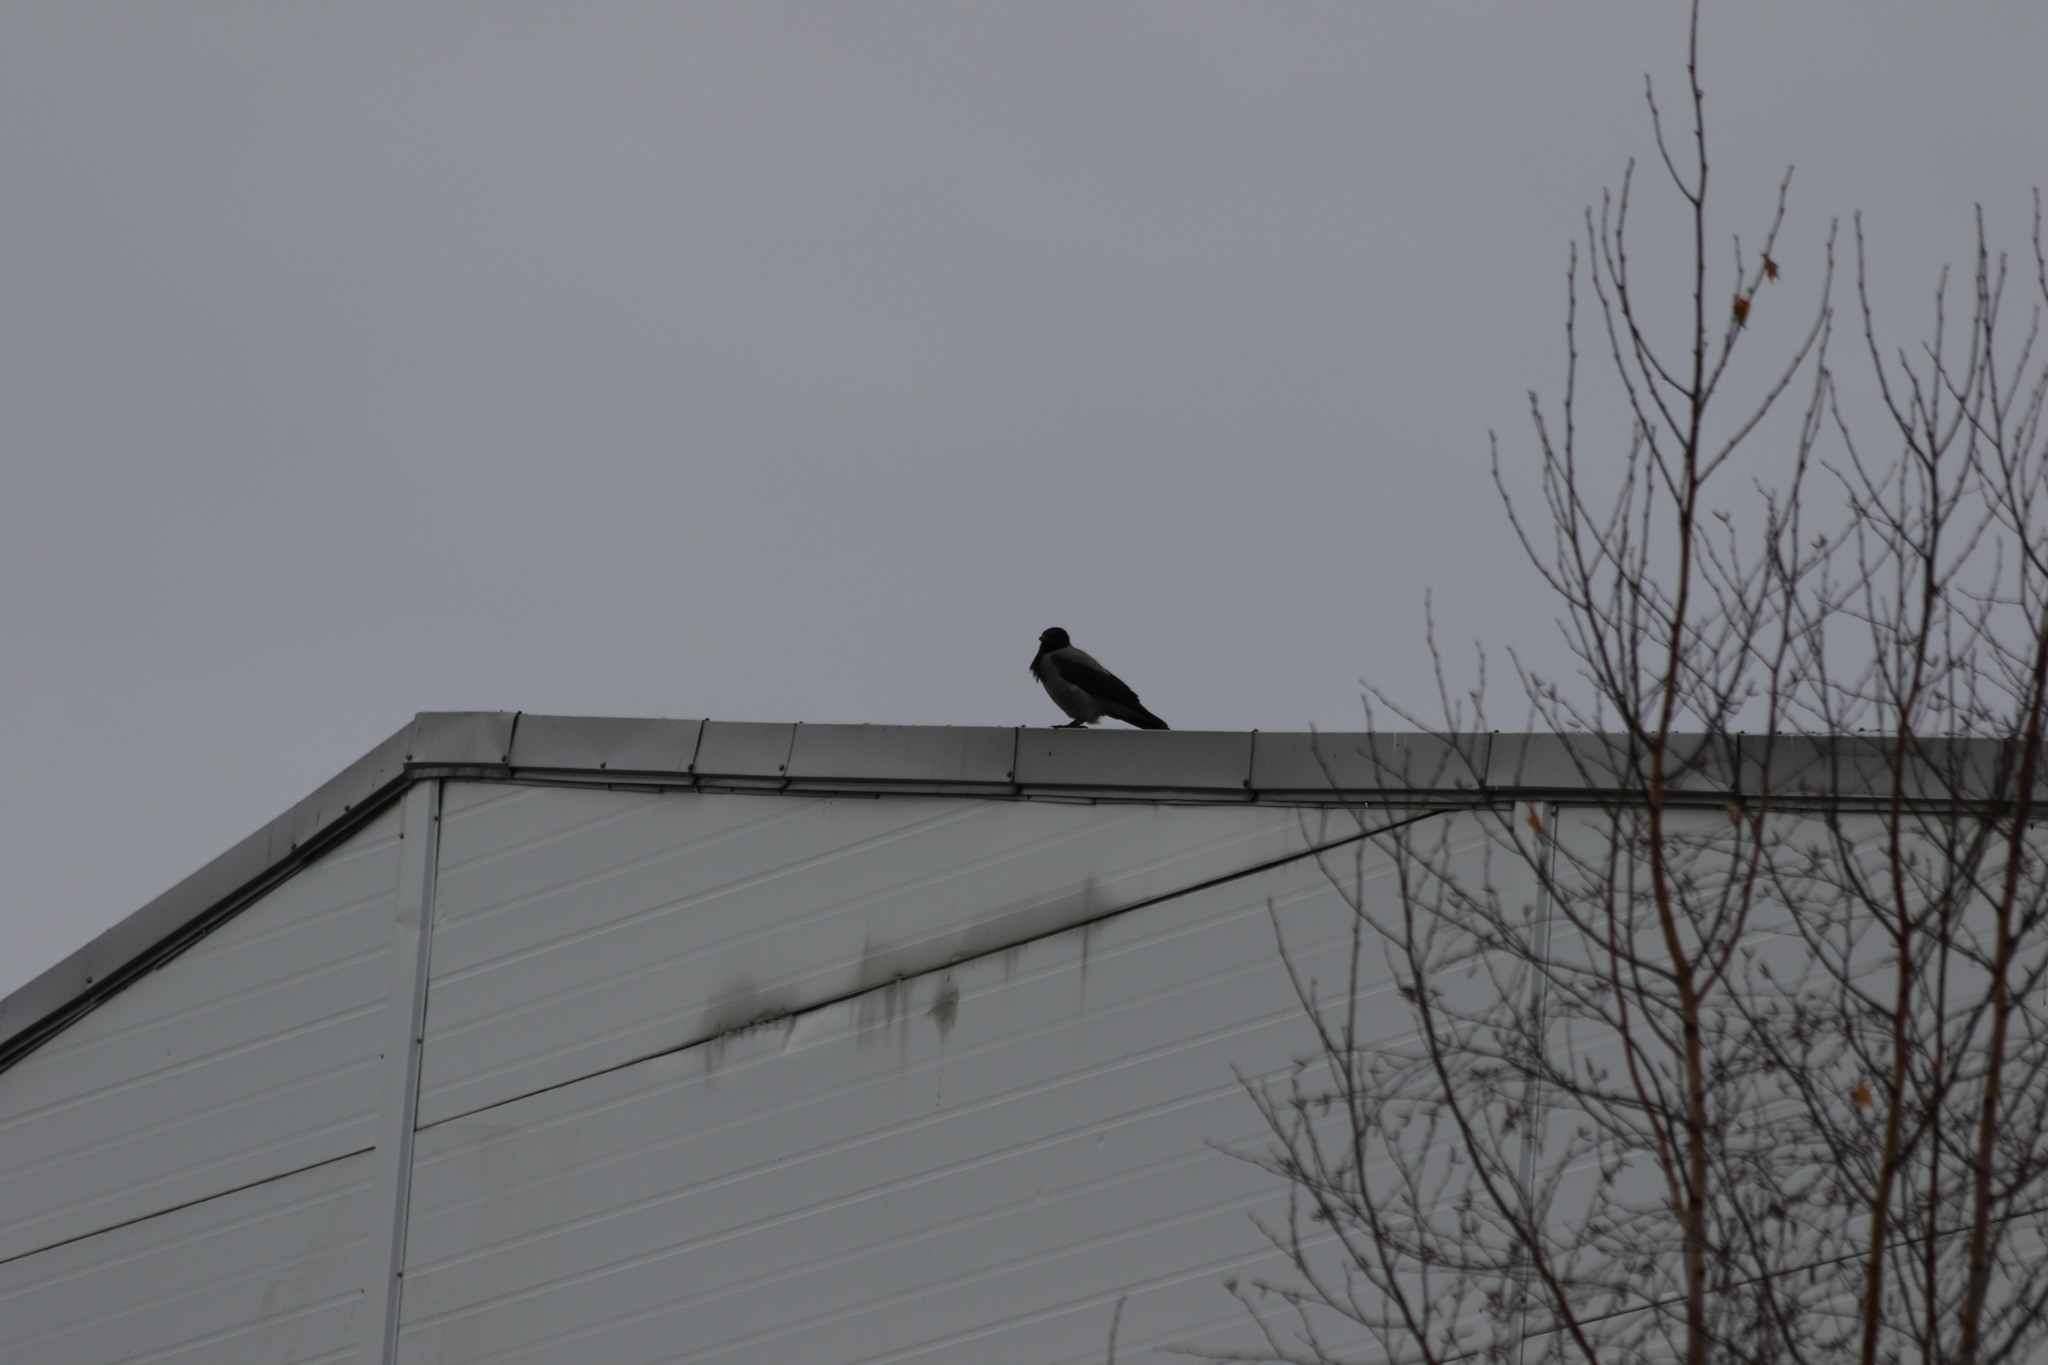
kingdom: Animalia
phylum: Chordata
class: Aves
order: Passeriformes
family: Corvidae
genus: Corvus
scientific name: Corvus cornix
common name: Hooded crow
